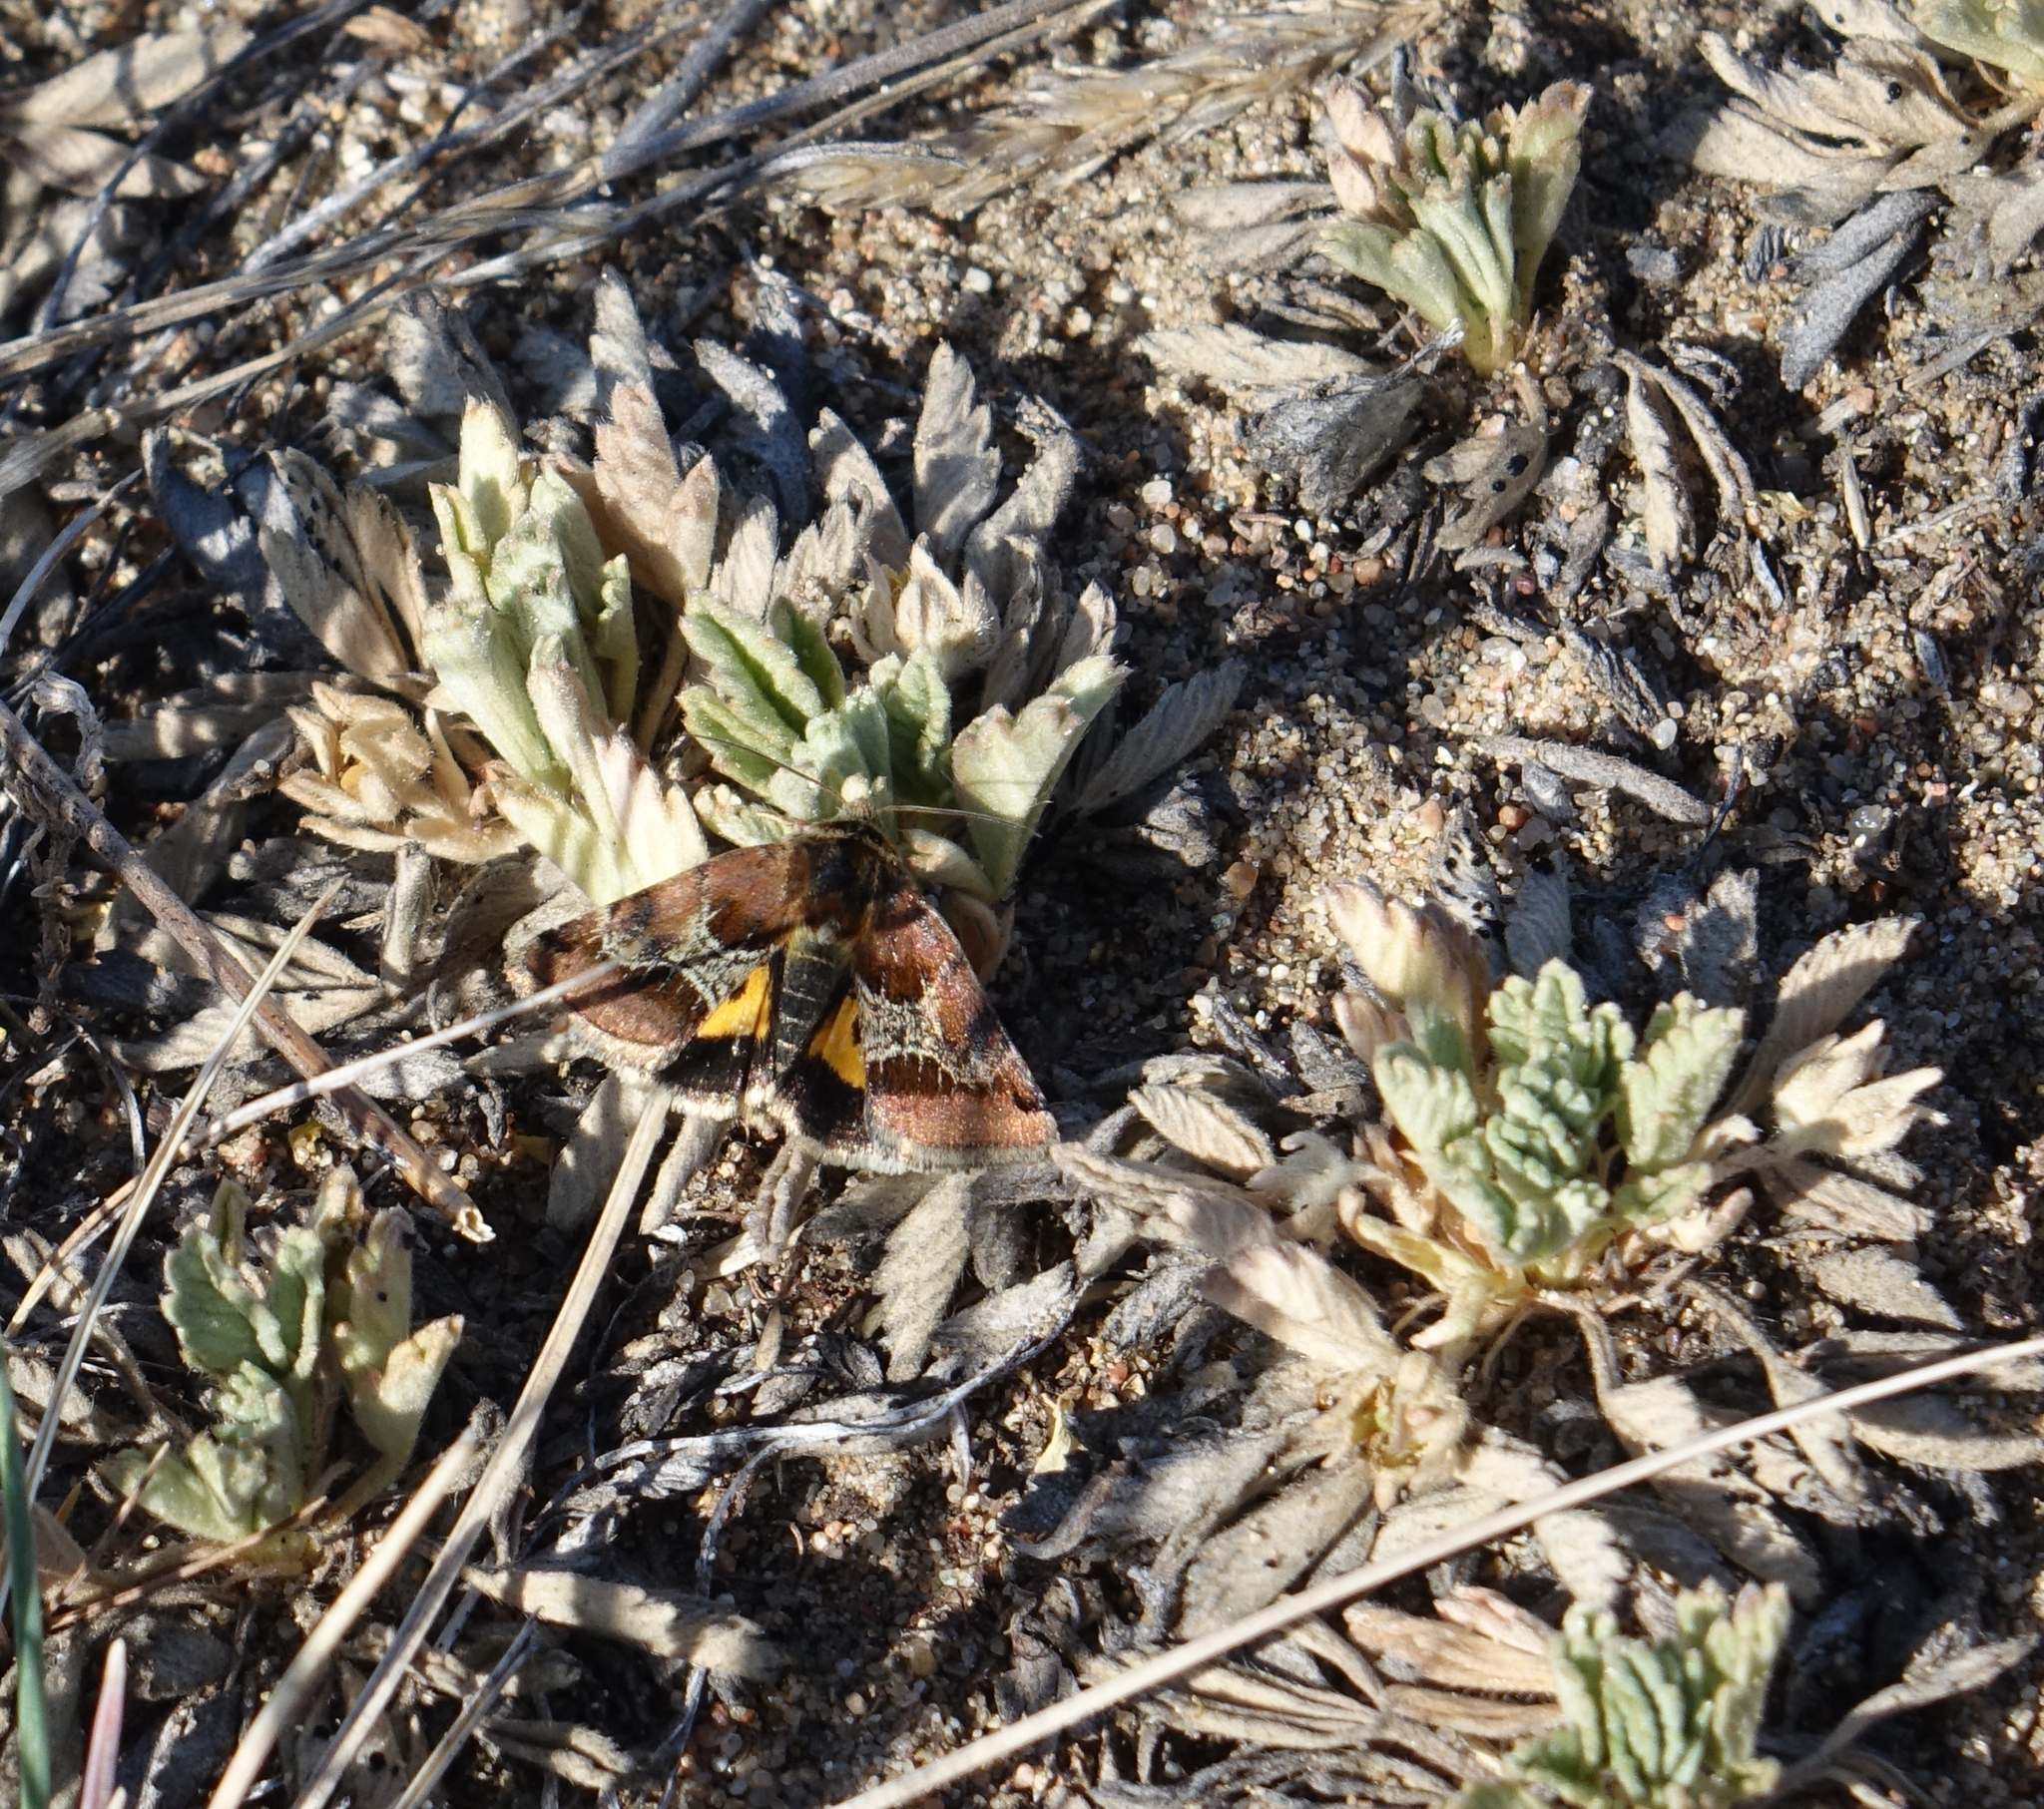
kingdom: Animalia
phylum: Arthropoda
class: Insecta
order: Lepidoptera
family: Noctuidae
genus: Periphanes
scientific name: Periphanes cora
